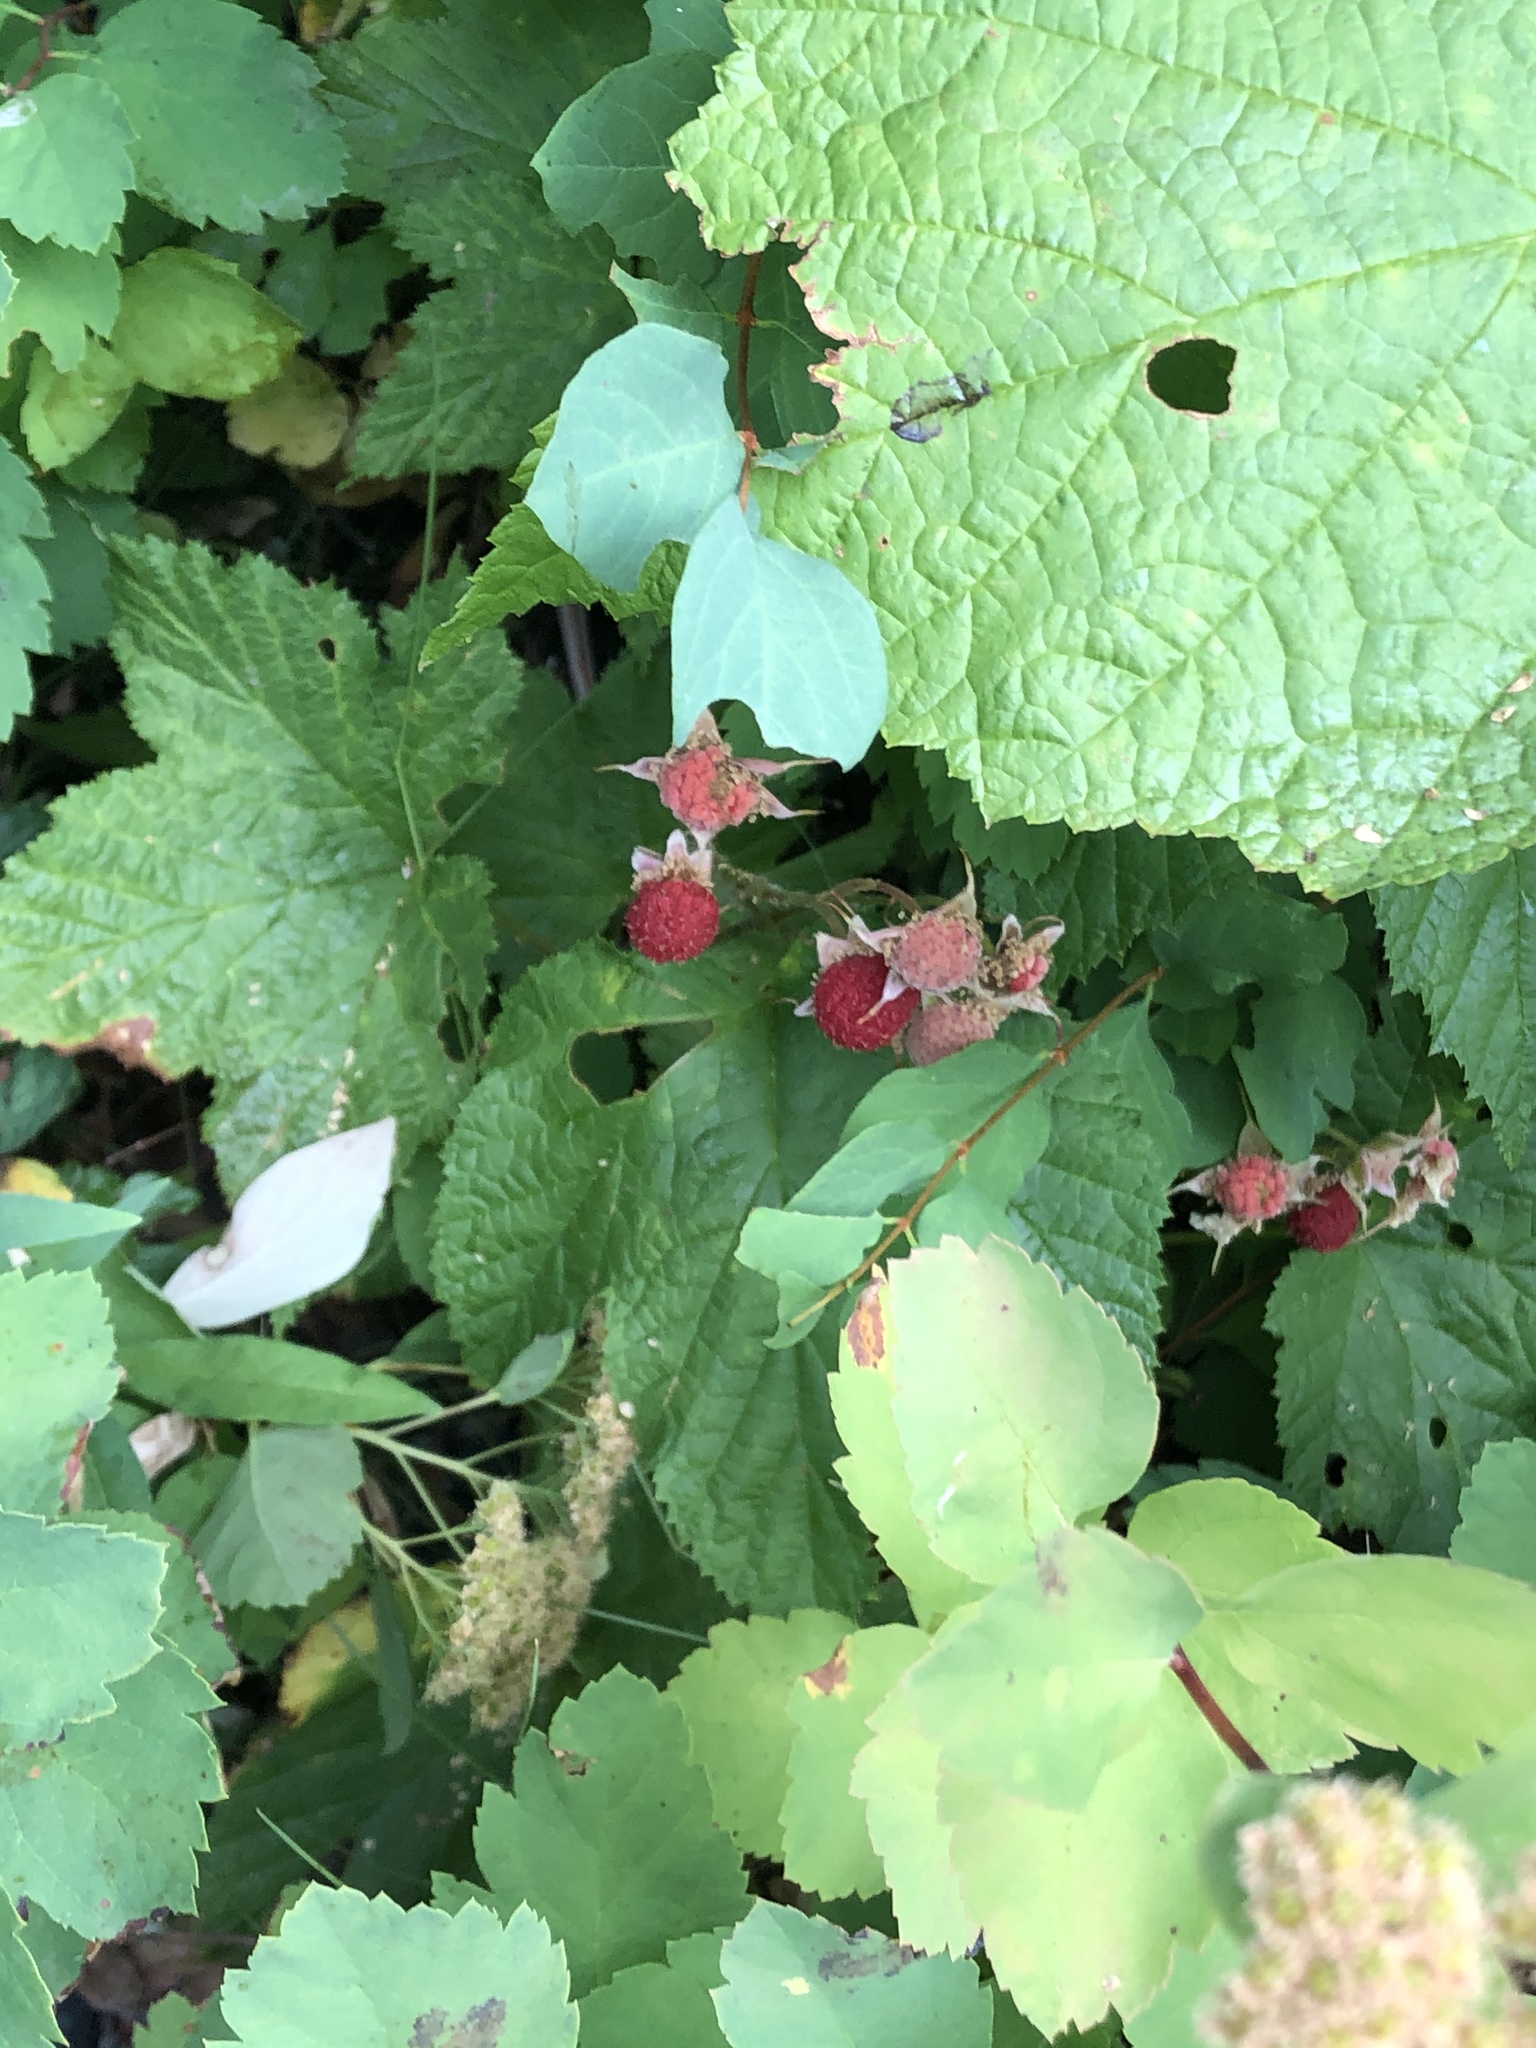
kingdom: Plantae
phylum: Tracheophyta
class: Magnoliopsida
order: Rosales
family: Rosaceae
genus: Rubus
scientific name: Rubus parviflorus
